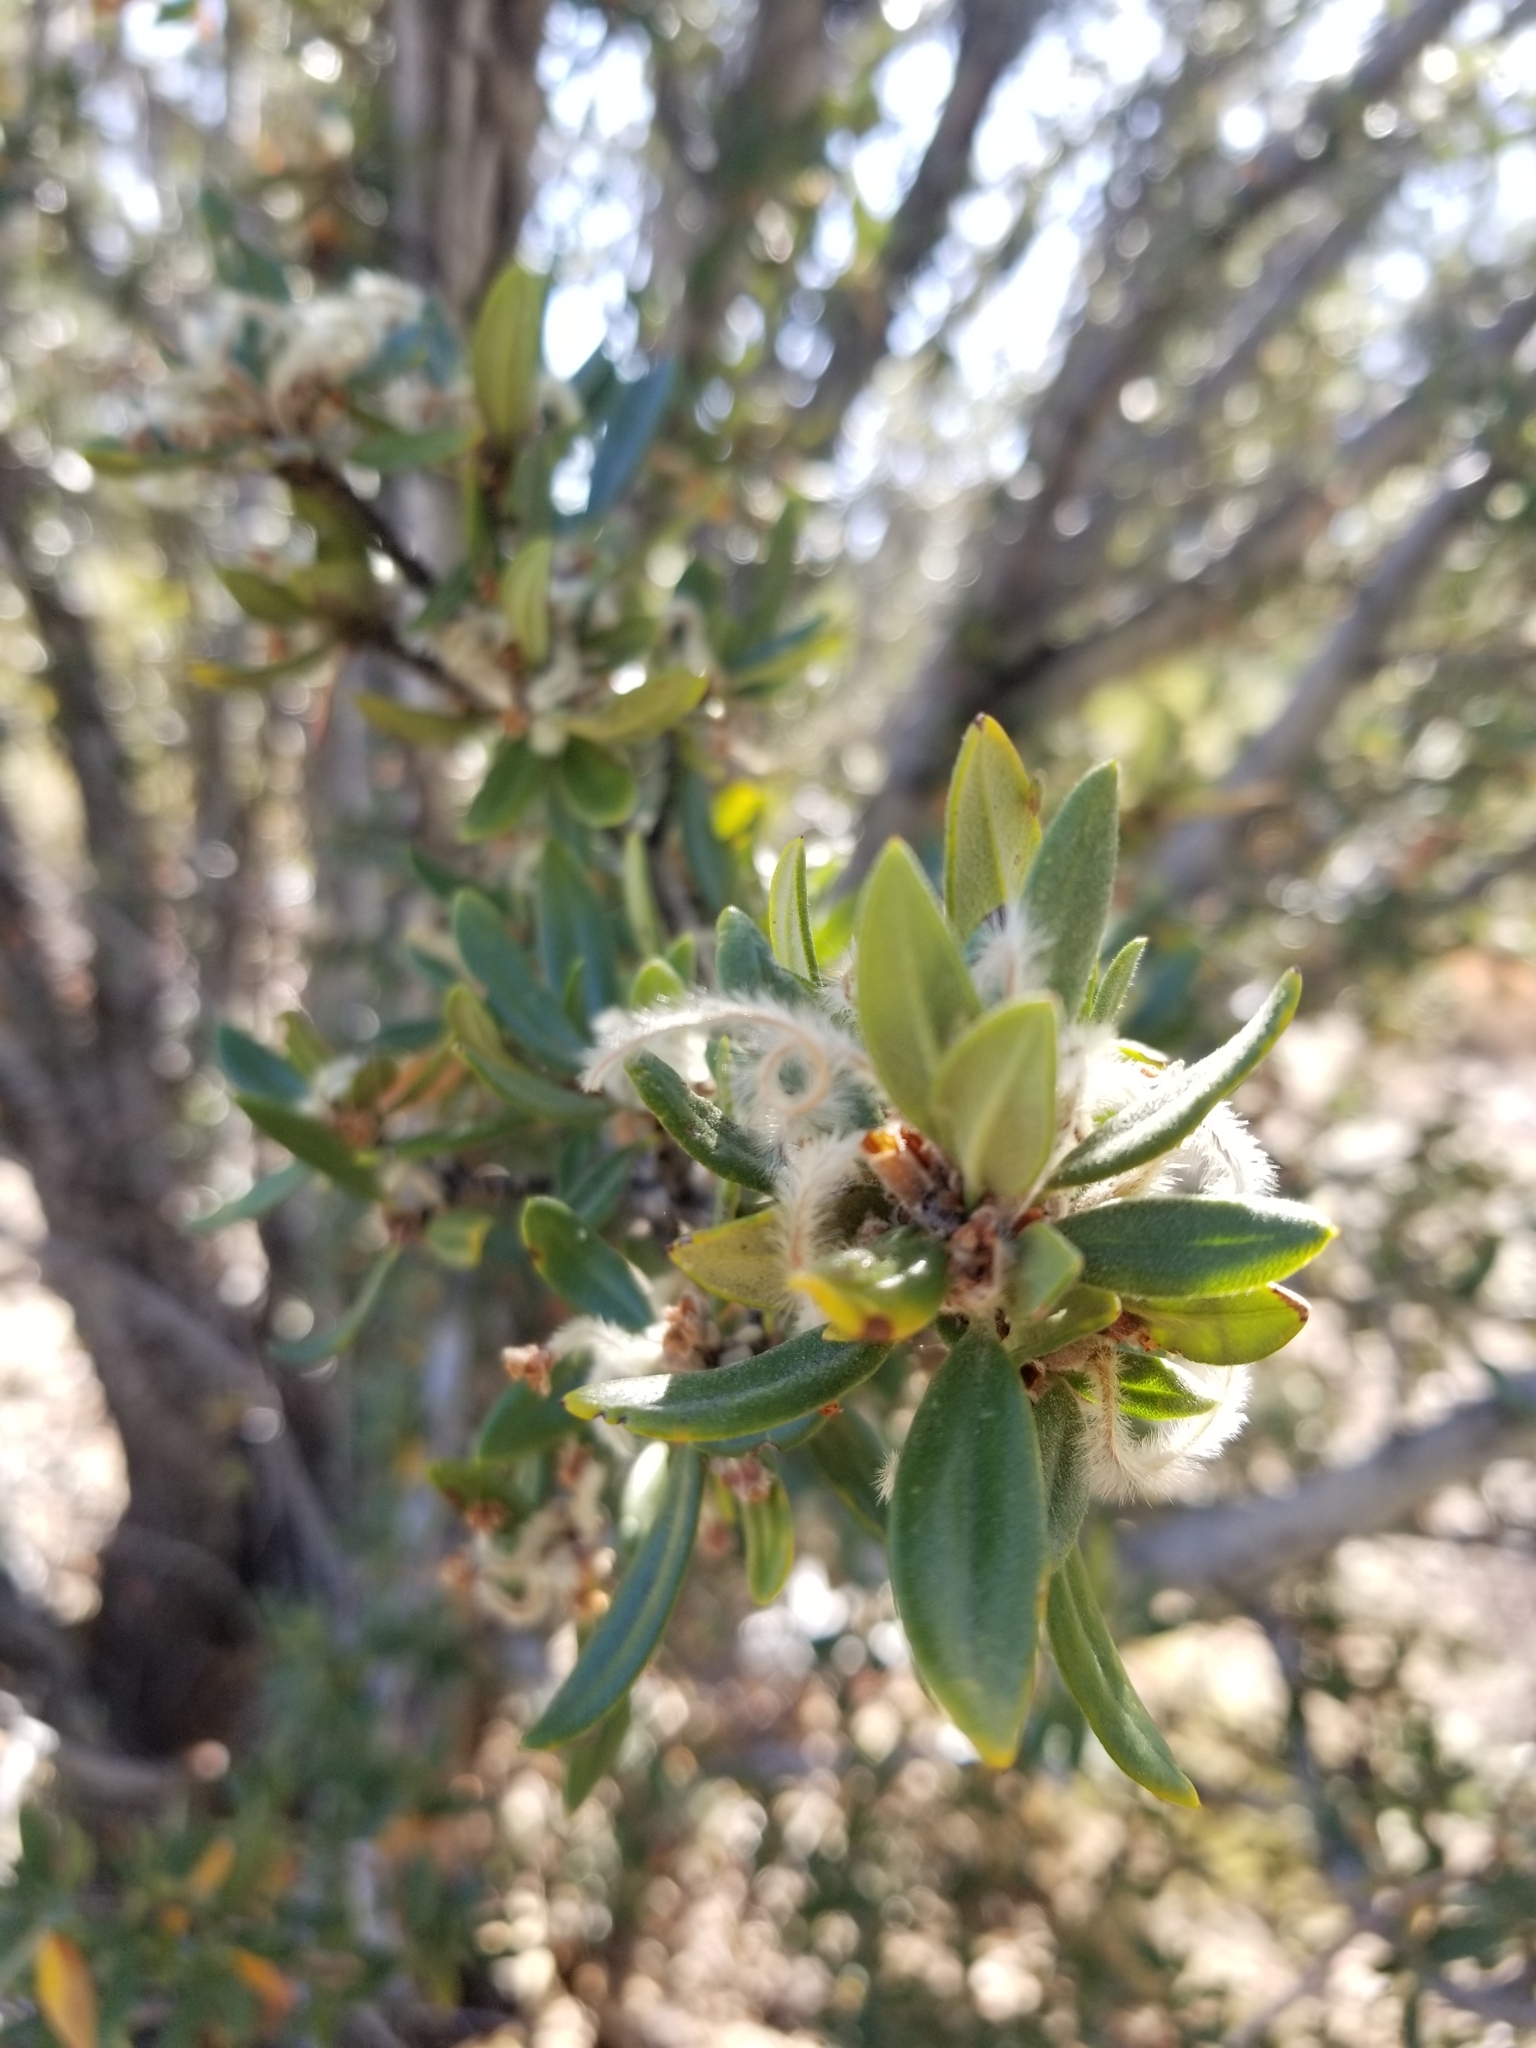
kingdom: Plantae
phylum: Tracheophyta
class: Magnoliopsida
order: Rosales
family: Rosaceae
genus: Cercocarpus
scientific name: Cercocarpus ledifolius
